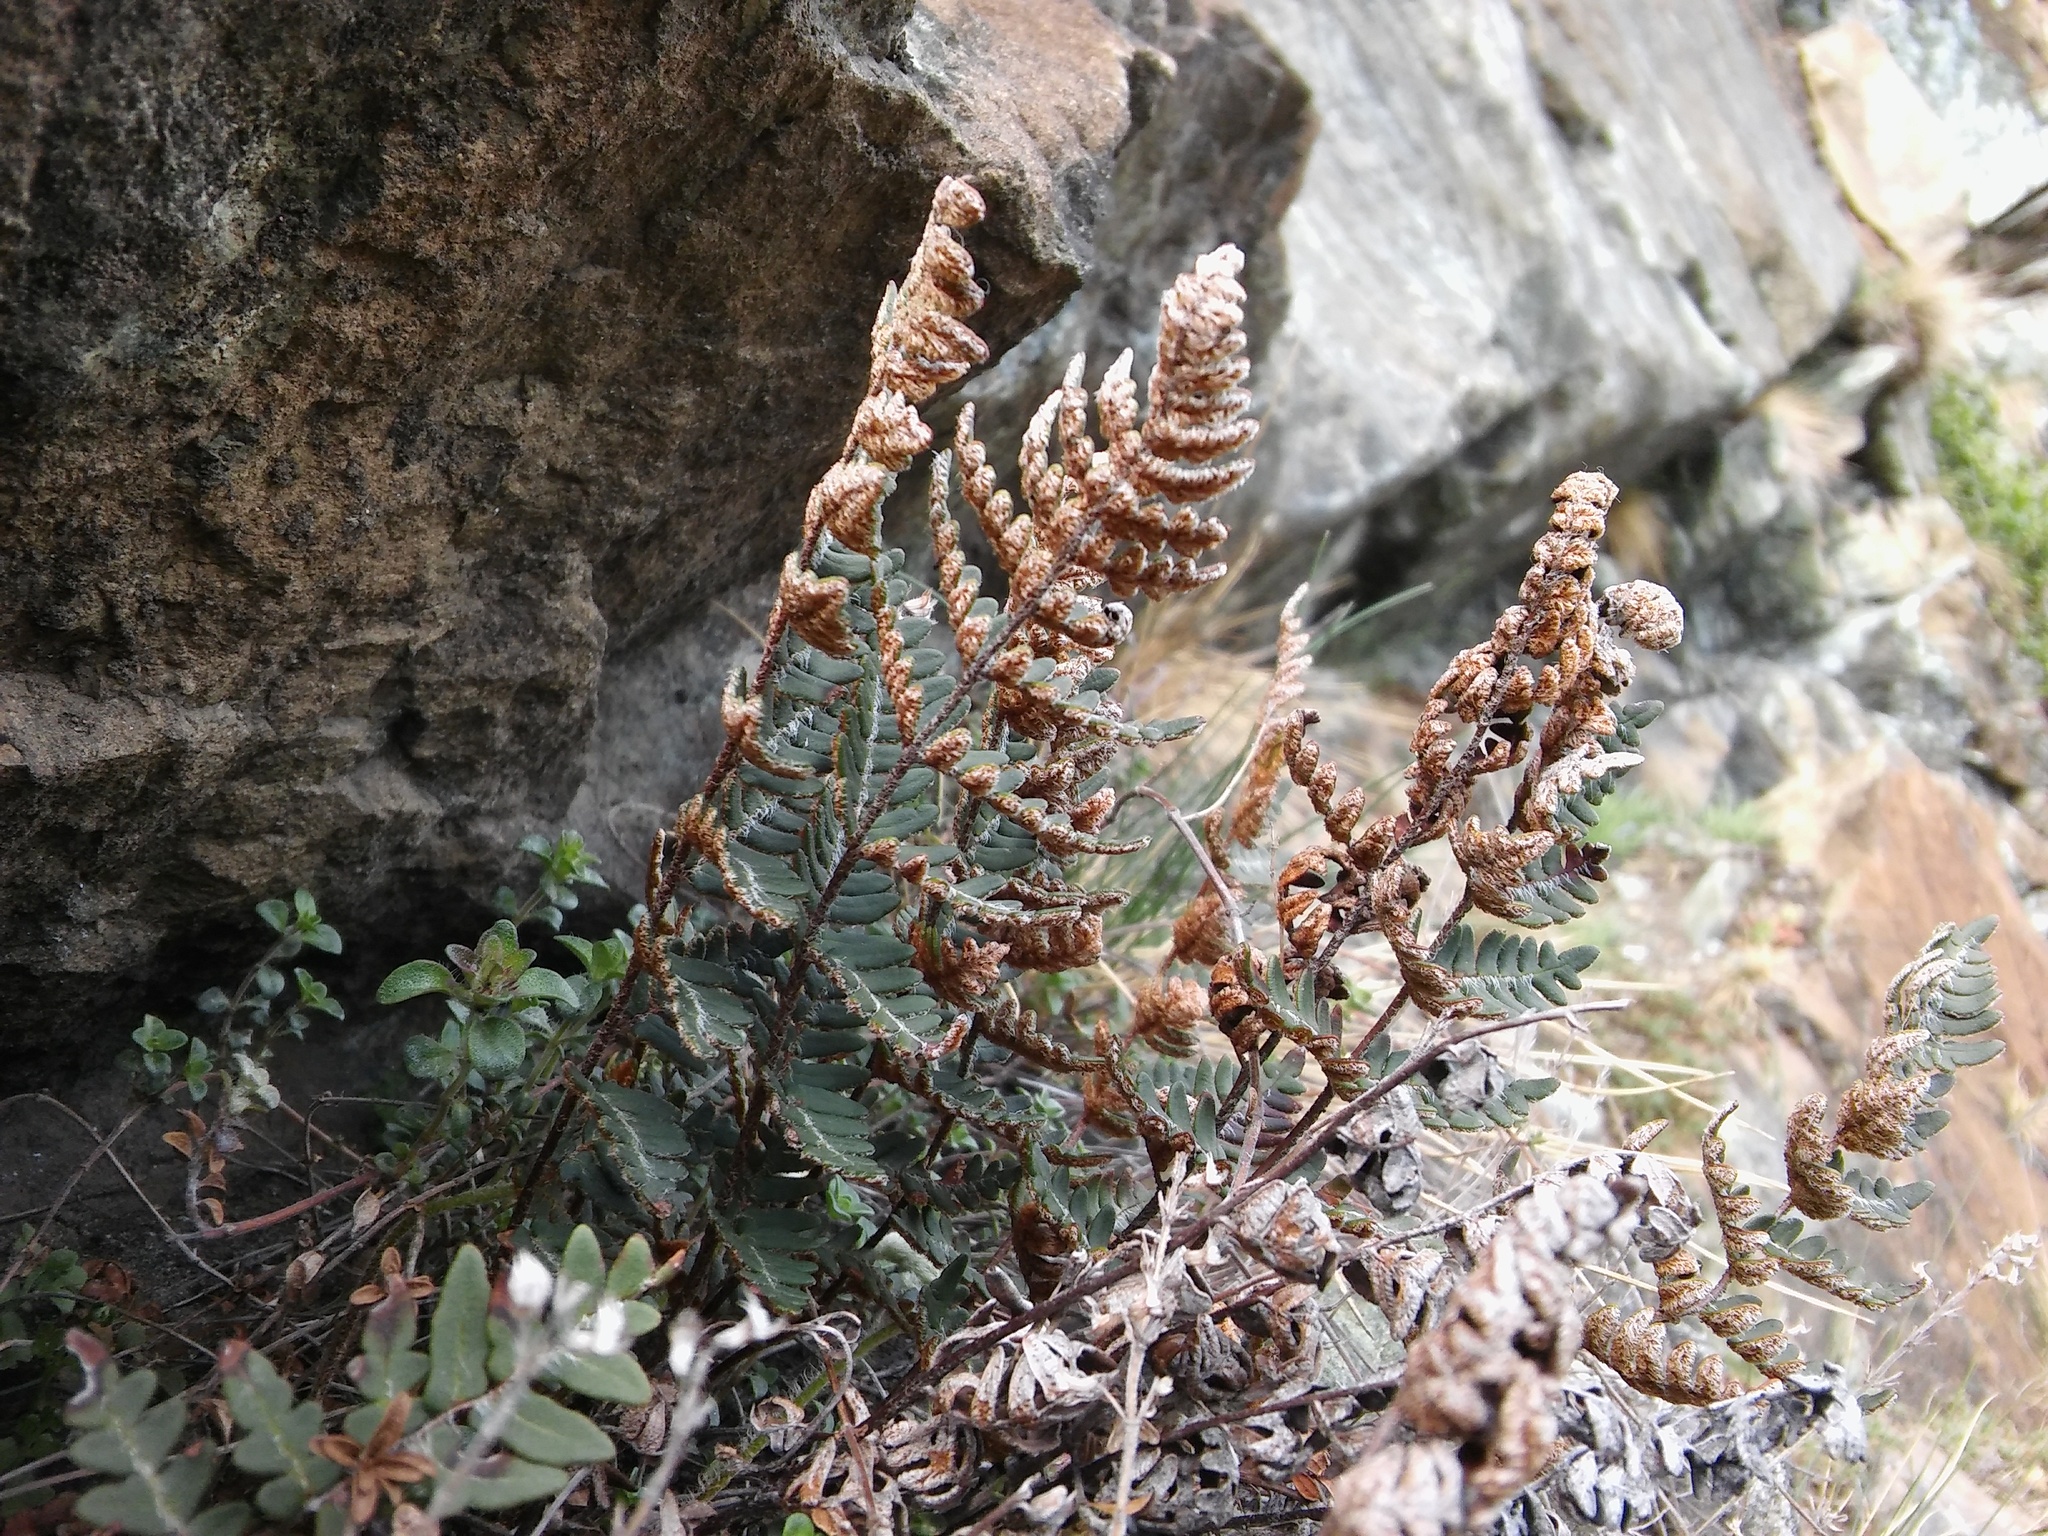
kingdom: Plantae
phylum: Tracheophyta
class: Polypodiopsida
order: Polypodiales
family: Pteridaceae
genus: Paragymnopteris
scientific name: Paragymnopteris marantae
